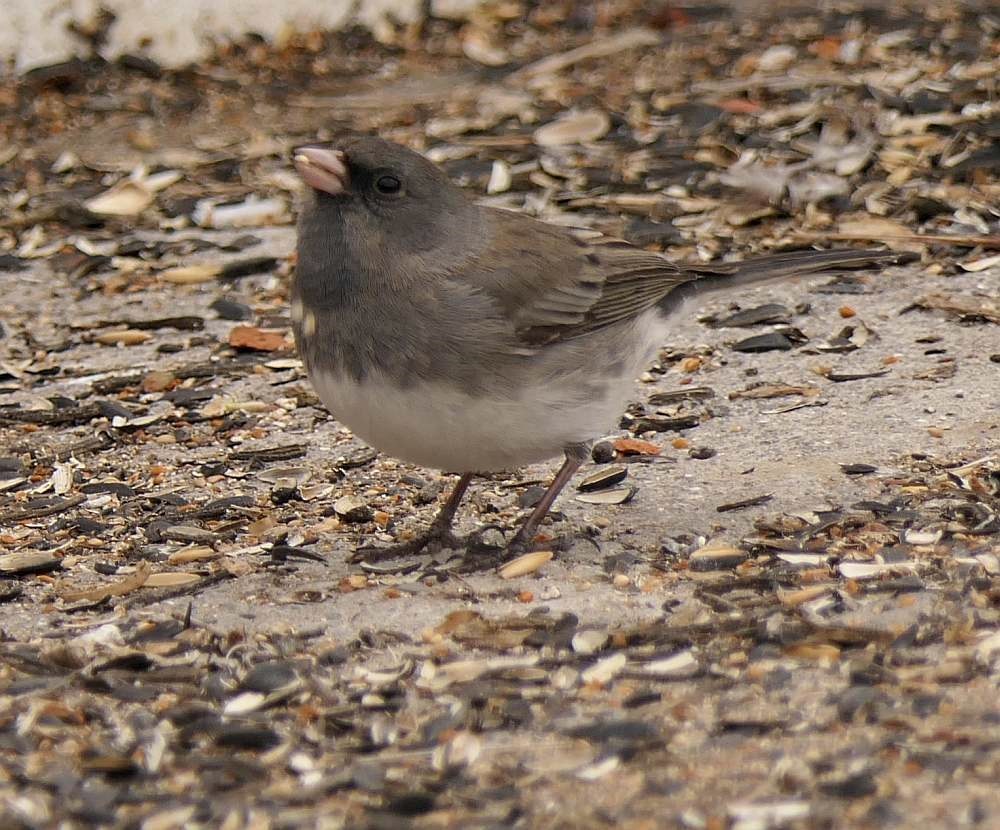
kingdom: Animalia
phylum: Chordata
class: Aves
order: Passeriformes
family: Passerellidae
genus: Junco
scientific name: Junco hyemalis
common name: Dark-eyed junco
